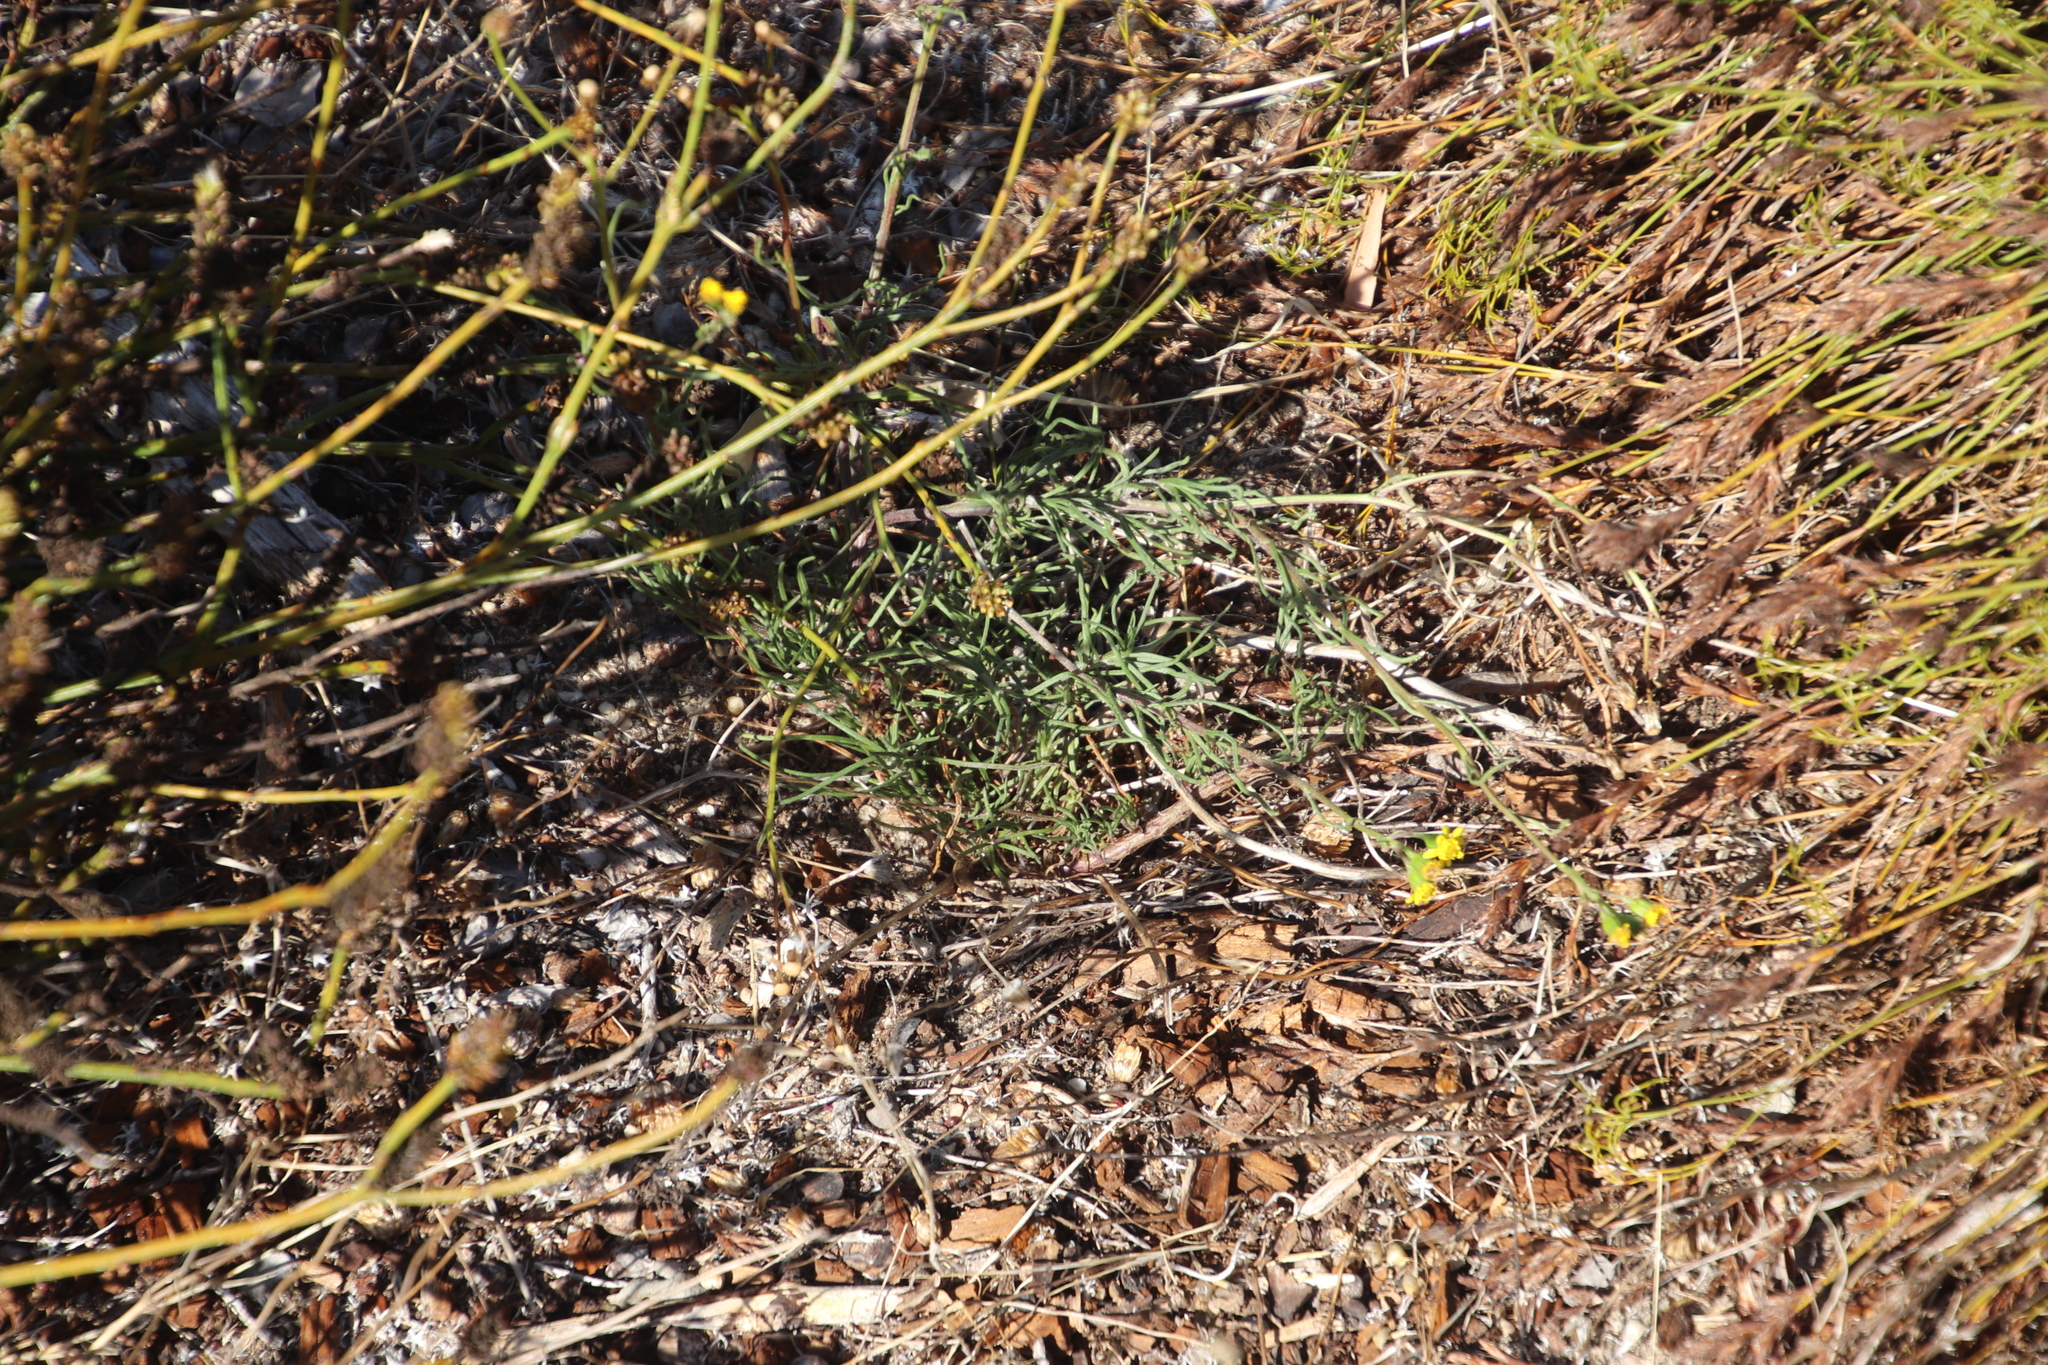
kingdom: Plantae
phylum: Tracheophyta
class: Magnoliopsida
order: Asterales
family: Asteraceae
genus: Senecio
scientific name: Senecio burchellii
